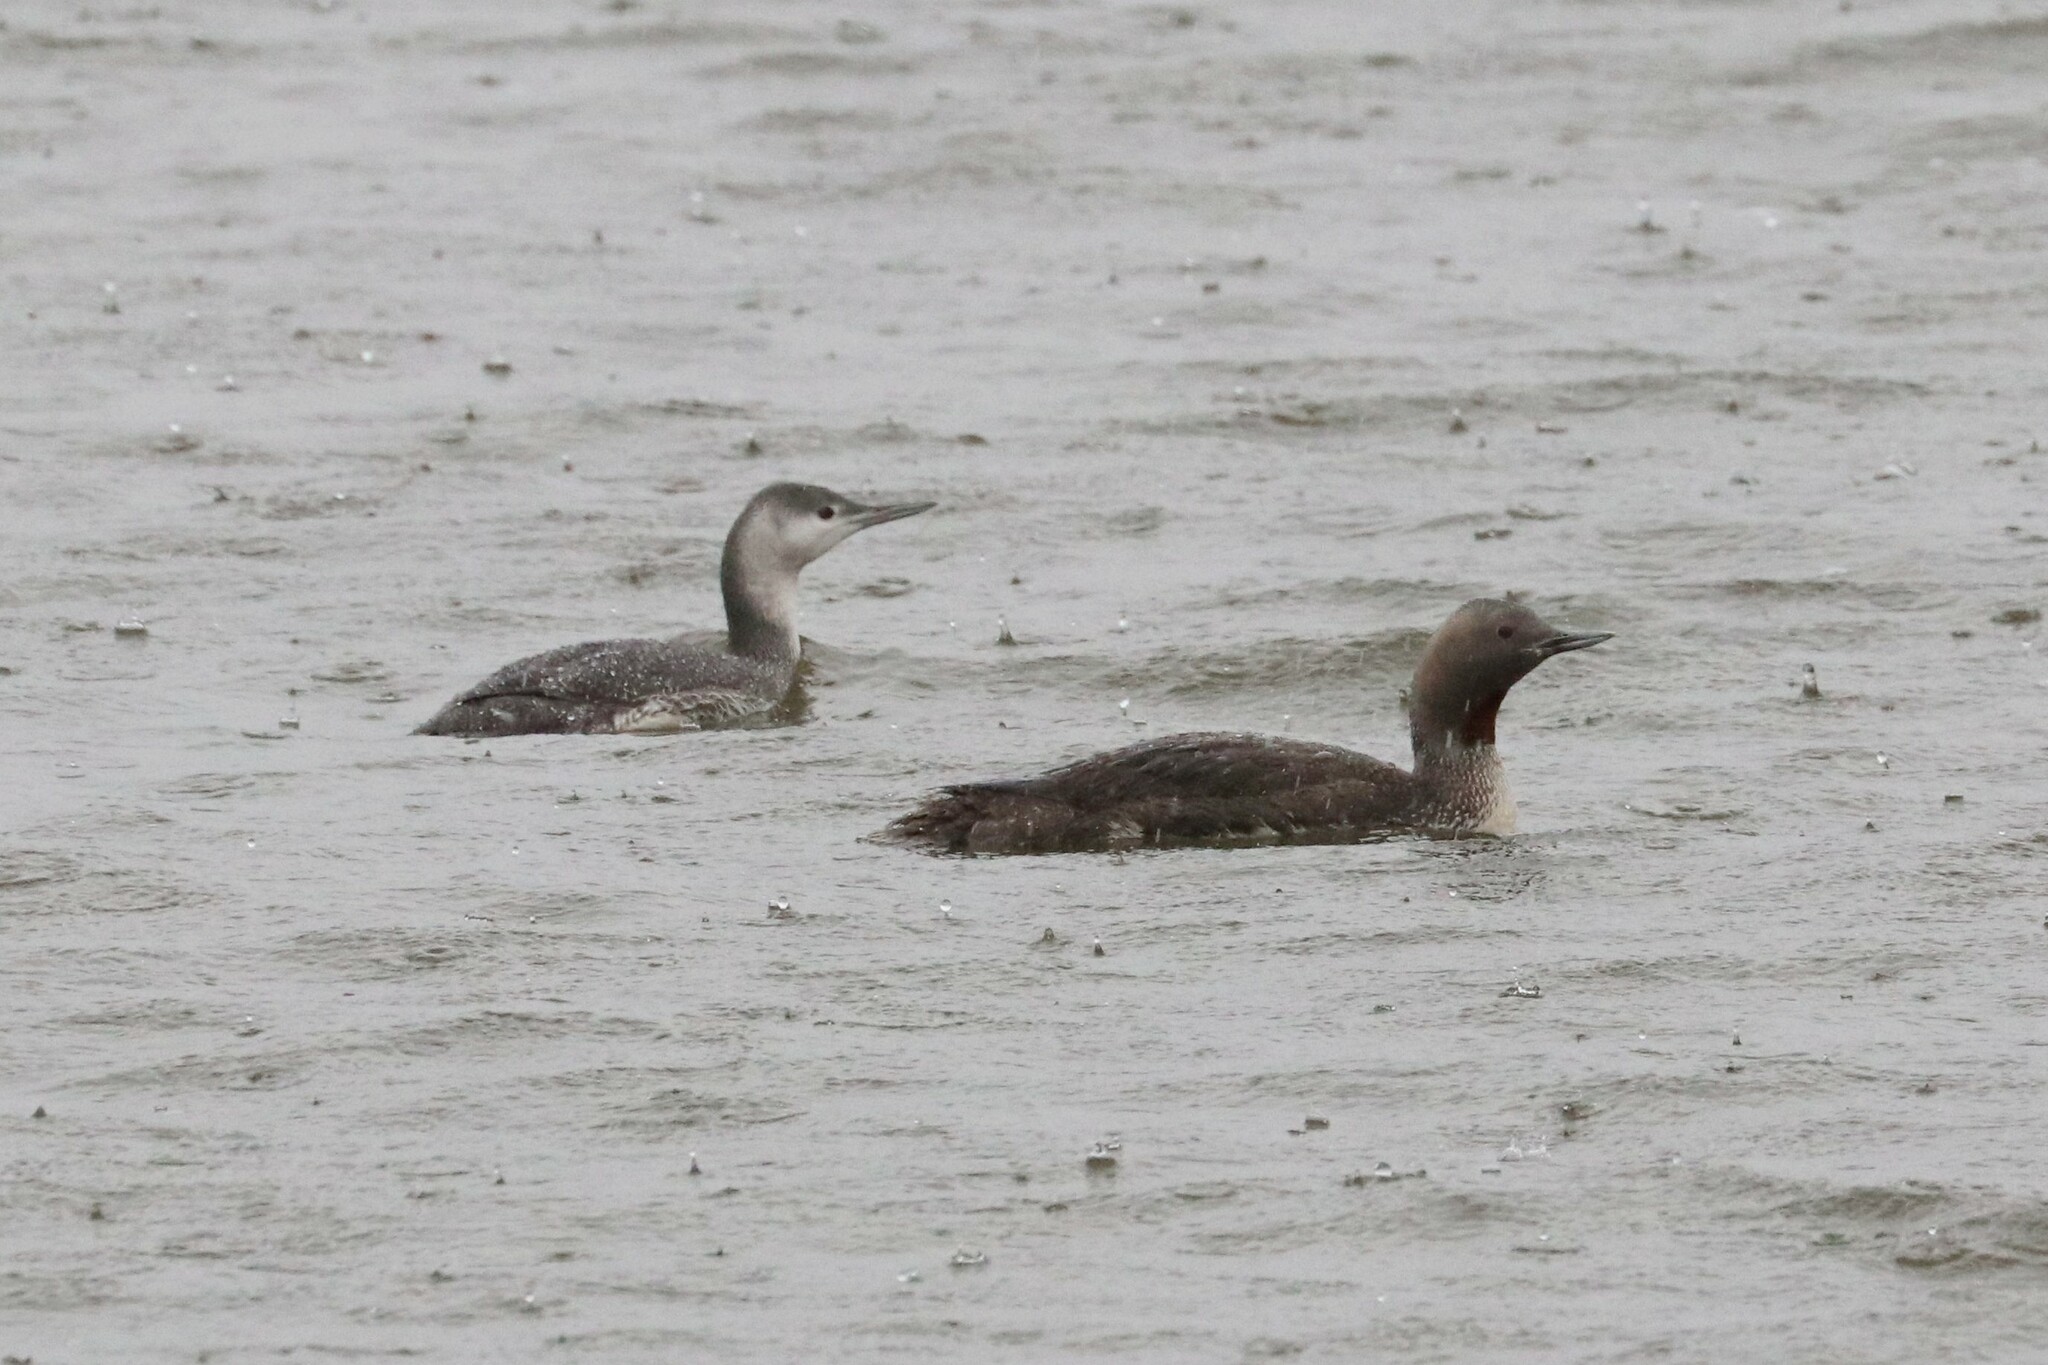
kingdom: Animalia
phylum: Chordata
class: Aves
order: Gaviiformes
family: Gaviidae
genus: Gavia
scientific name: Gavia stellata
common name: Red-throated loon
